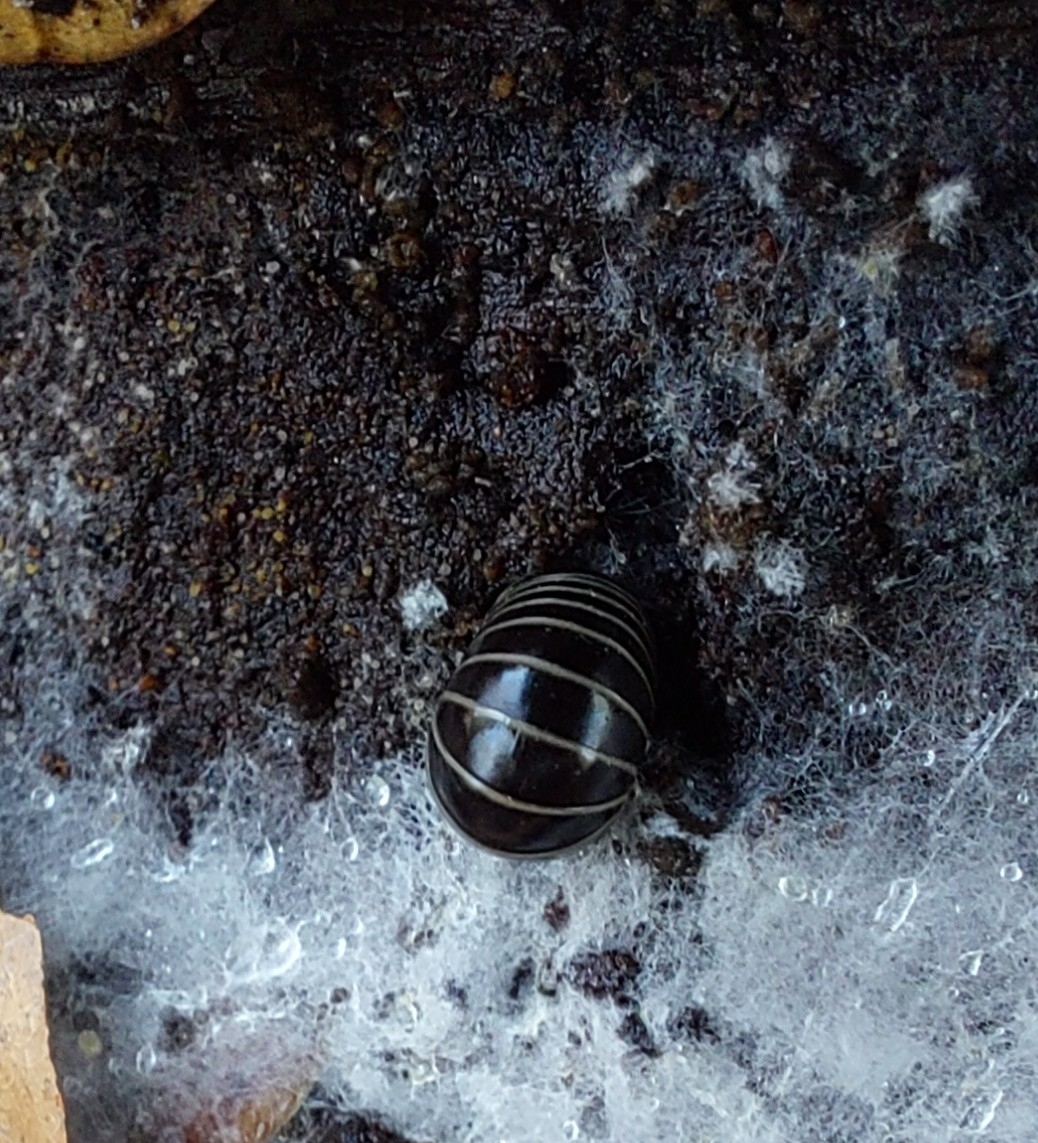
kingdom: Animalia
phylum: Arthropoda
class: Diplopoda
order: Glomerida
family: Glomeridae
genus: Glomeris
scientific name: Glomeris marginata
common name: Bordered pill millipede
